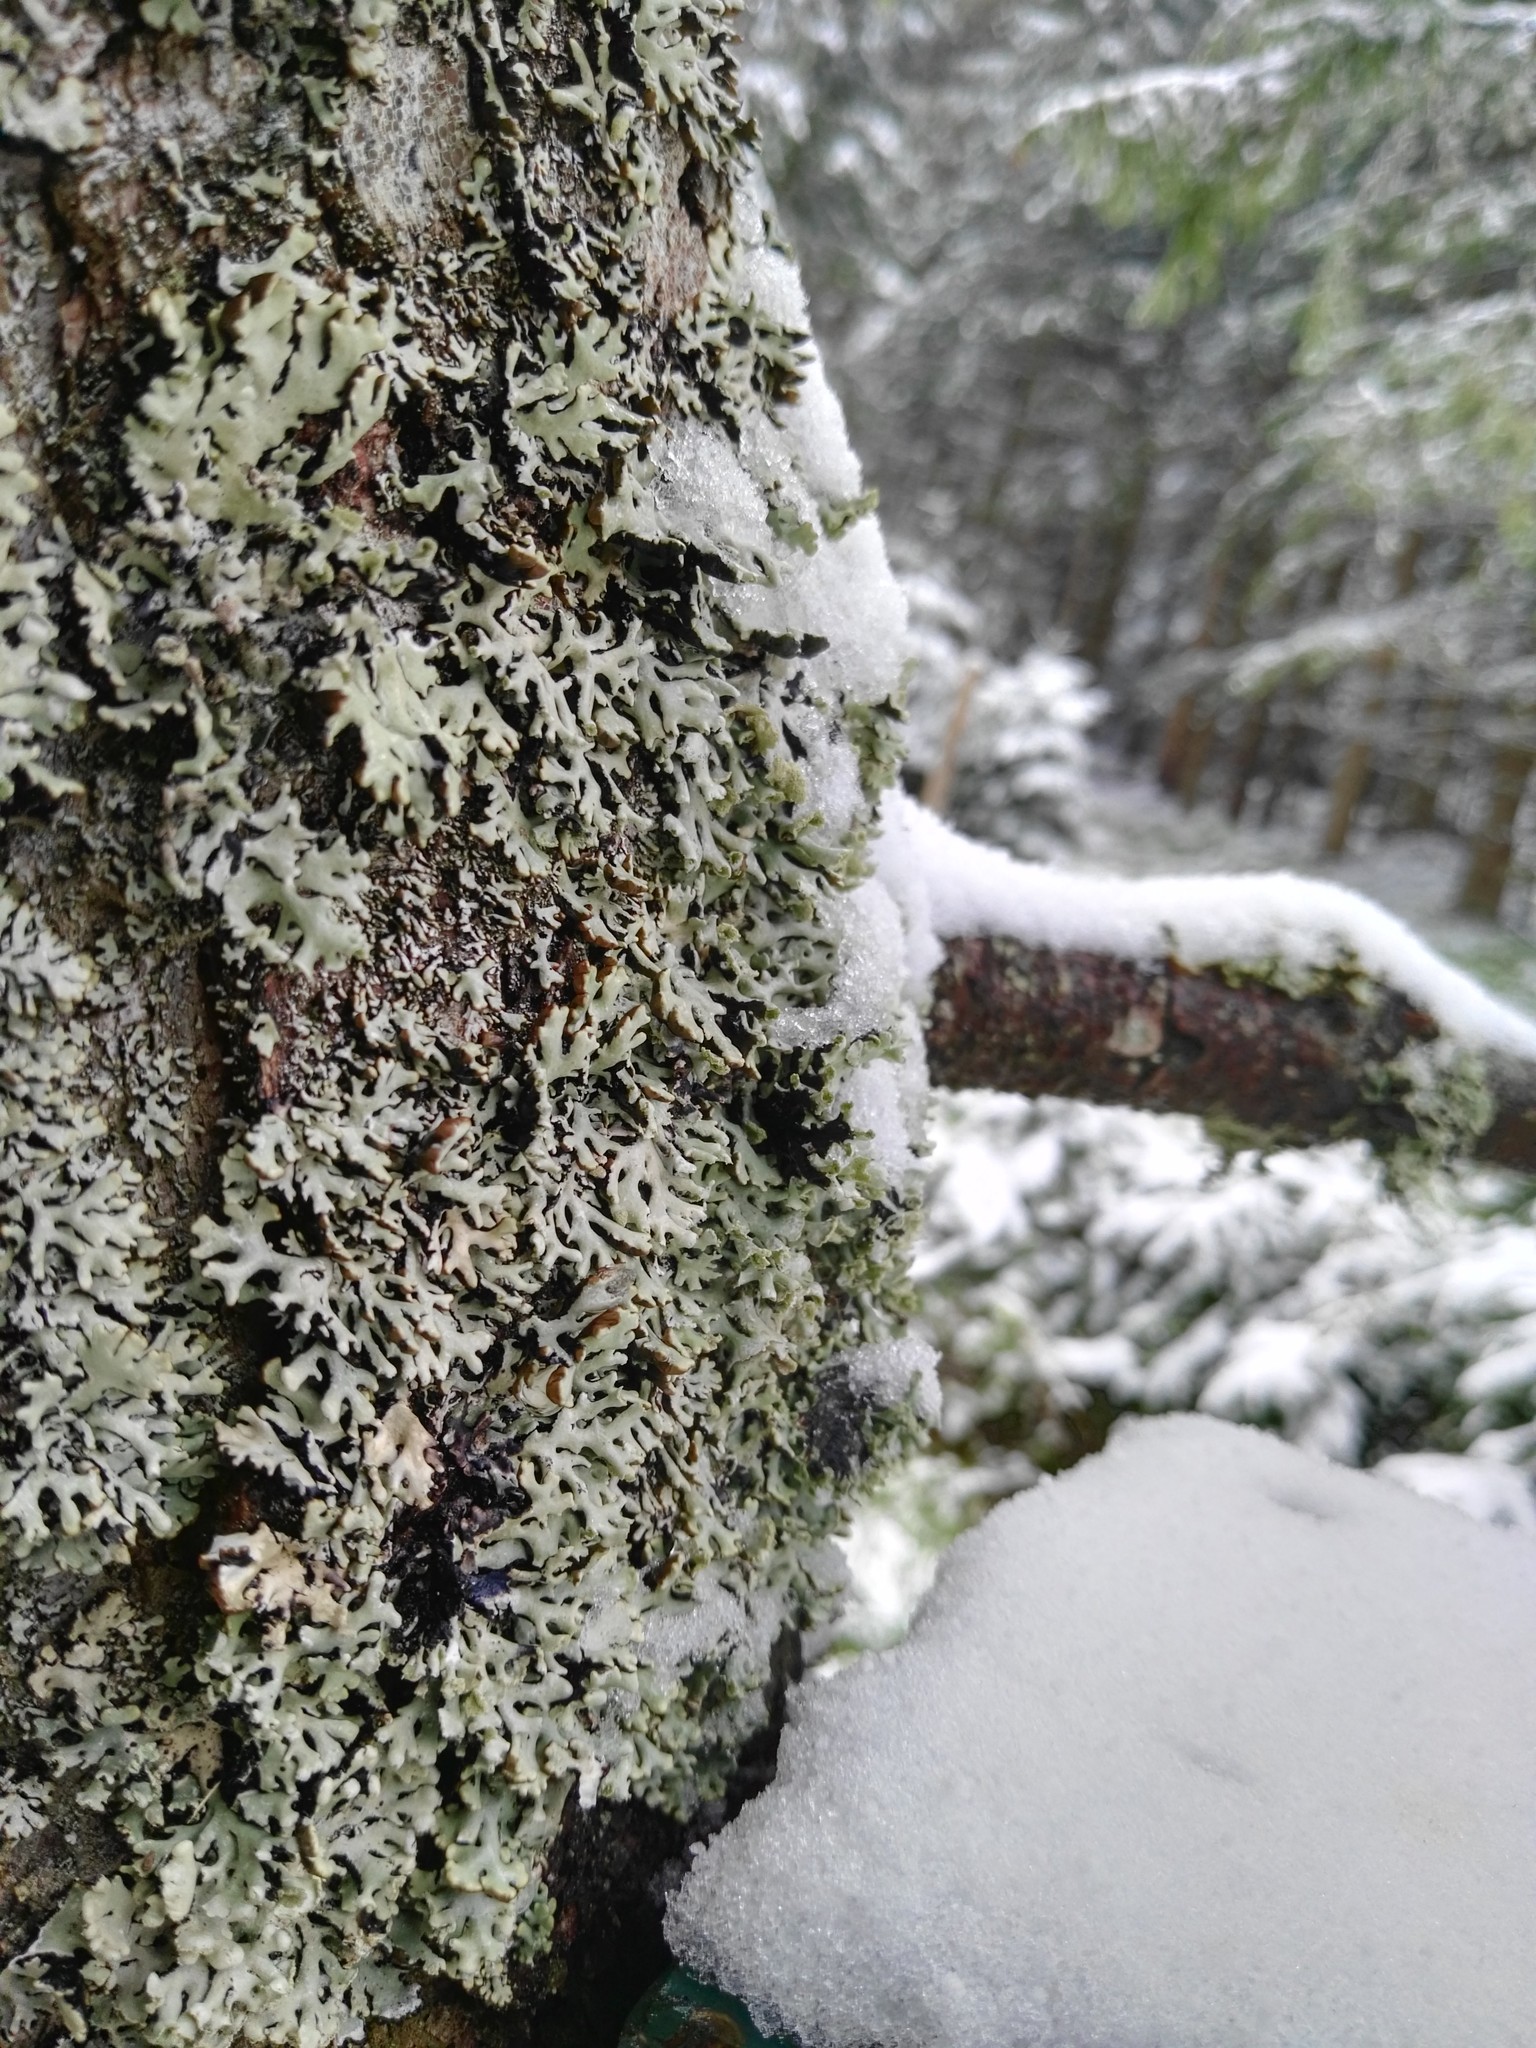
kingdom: Fungi
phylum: Ascomycota
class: Lecanoromycetes
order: Lecanorales
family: Parmeliaceae
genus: Hypogymnia
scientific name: Hypogymnia physodes
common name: Dark crottle
